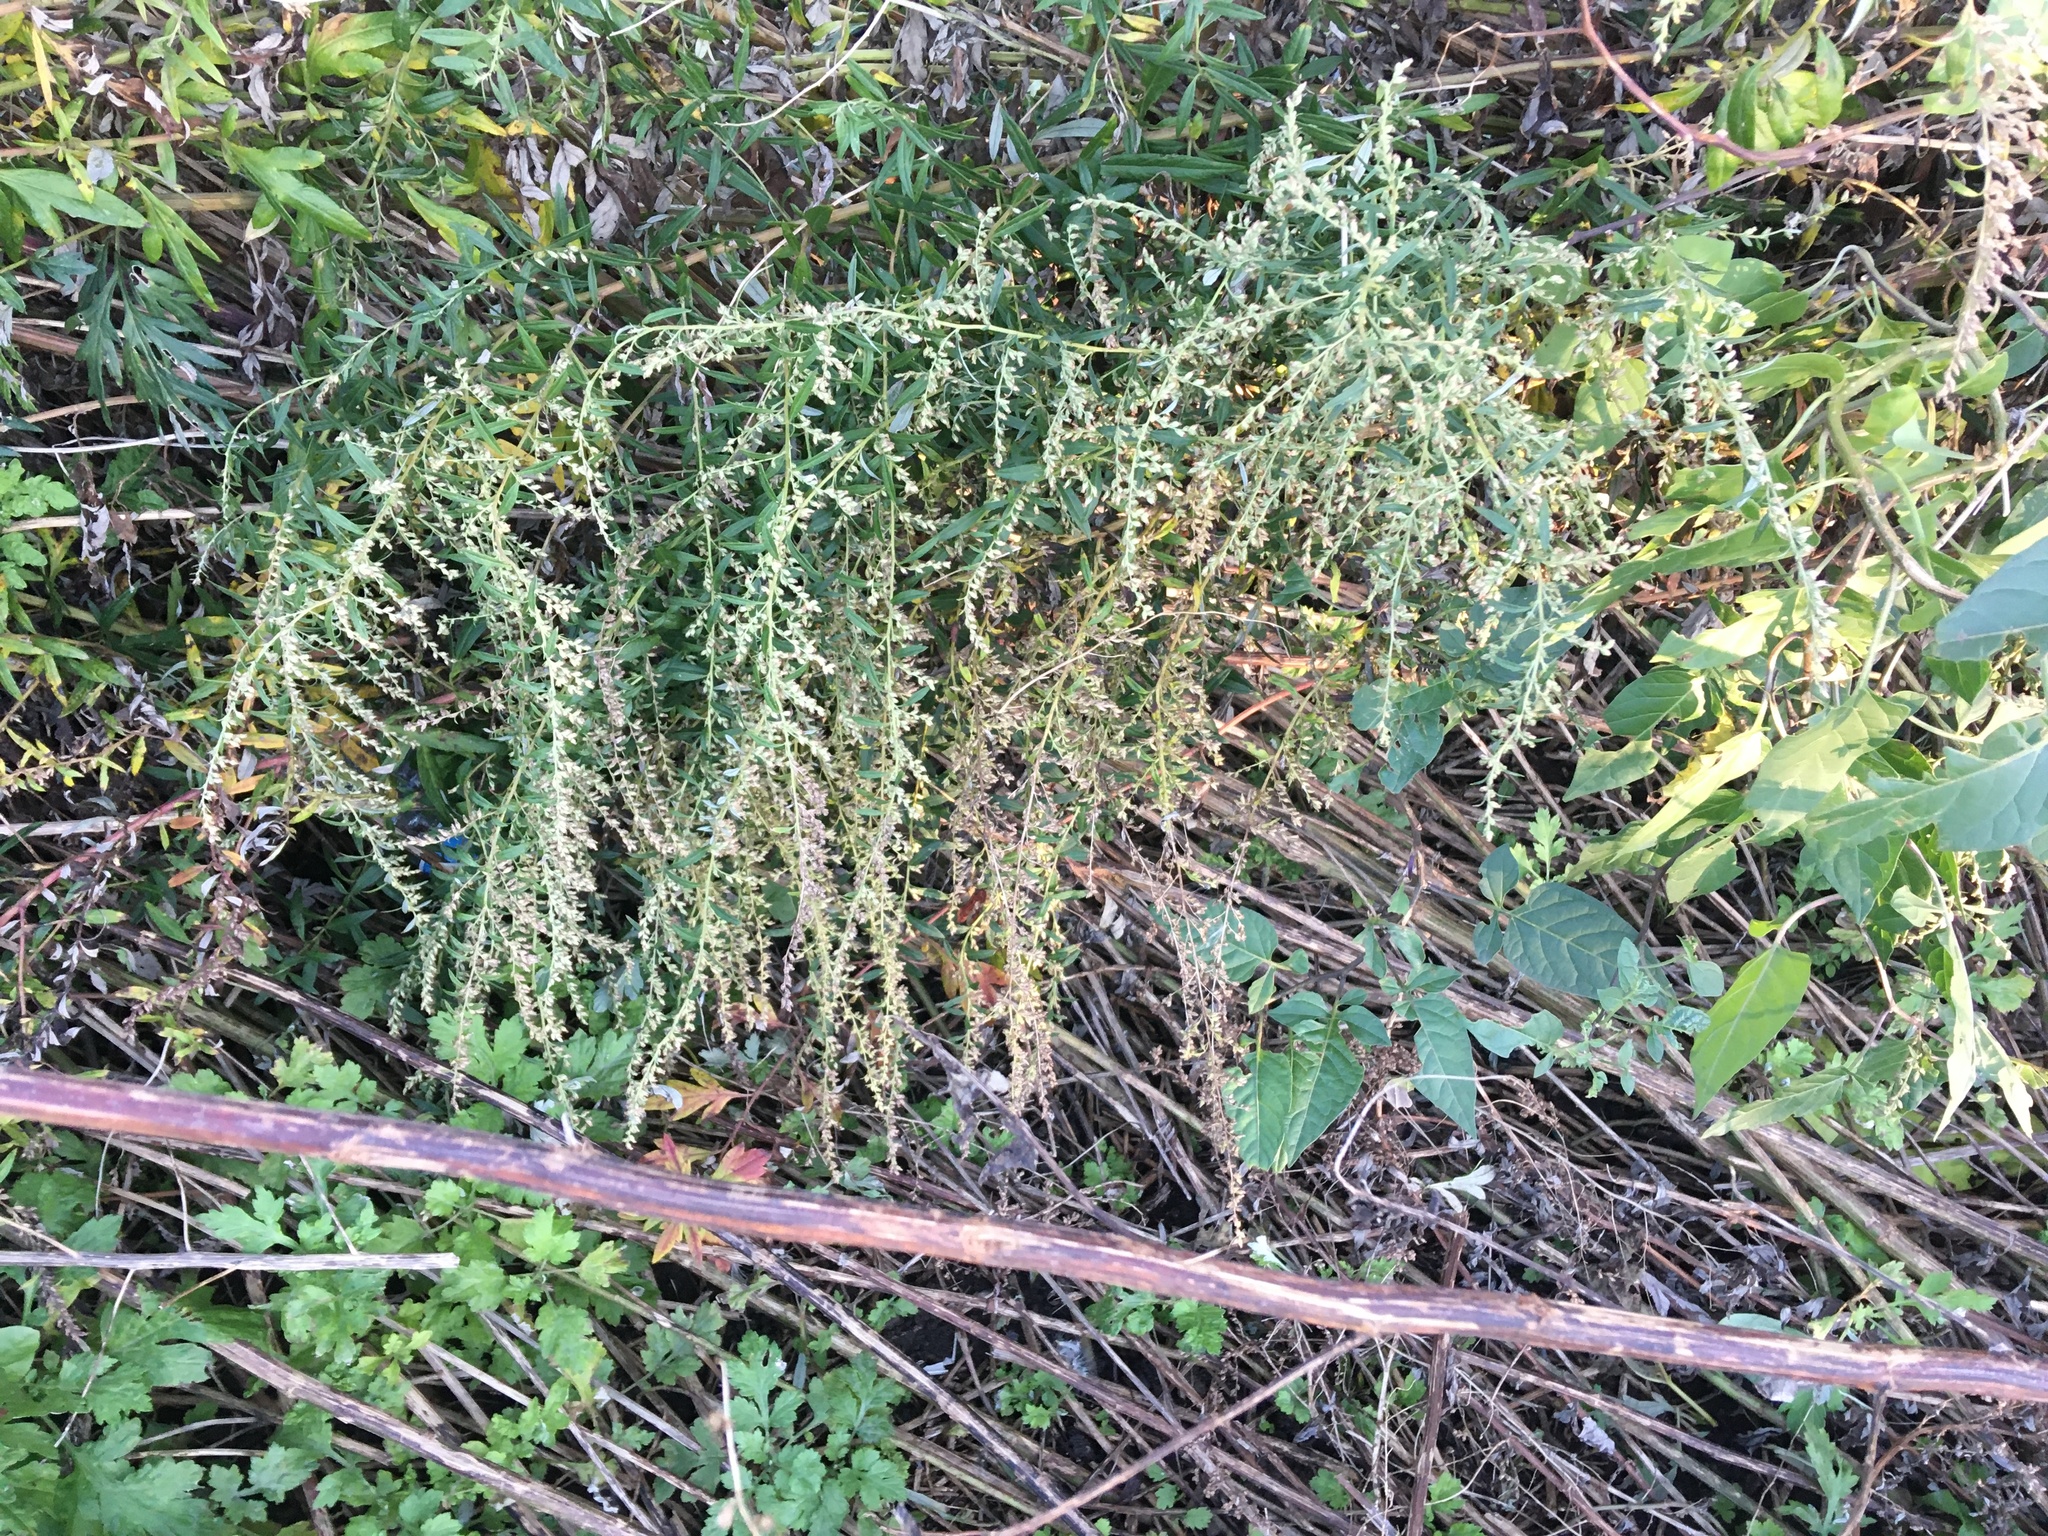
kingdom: Plantae
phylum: Tracheophyta
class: Magnoliopsida
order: Asterales
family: Asteraceae
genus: Artemisia
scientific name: Artemisia vulgaris
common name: Mugwort
